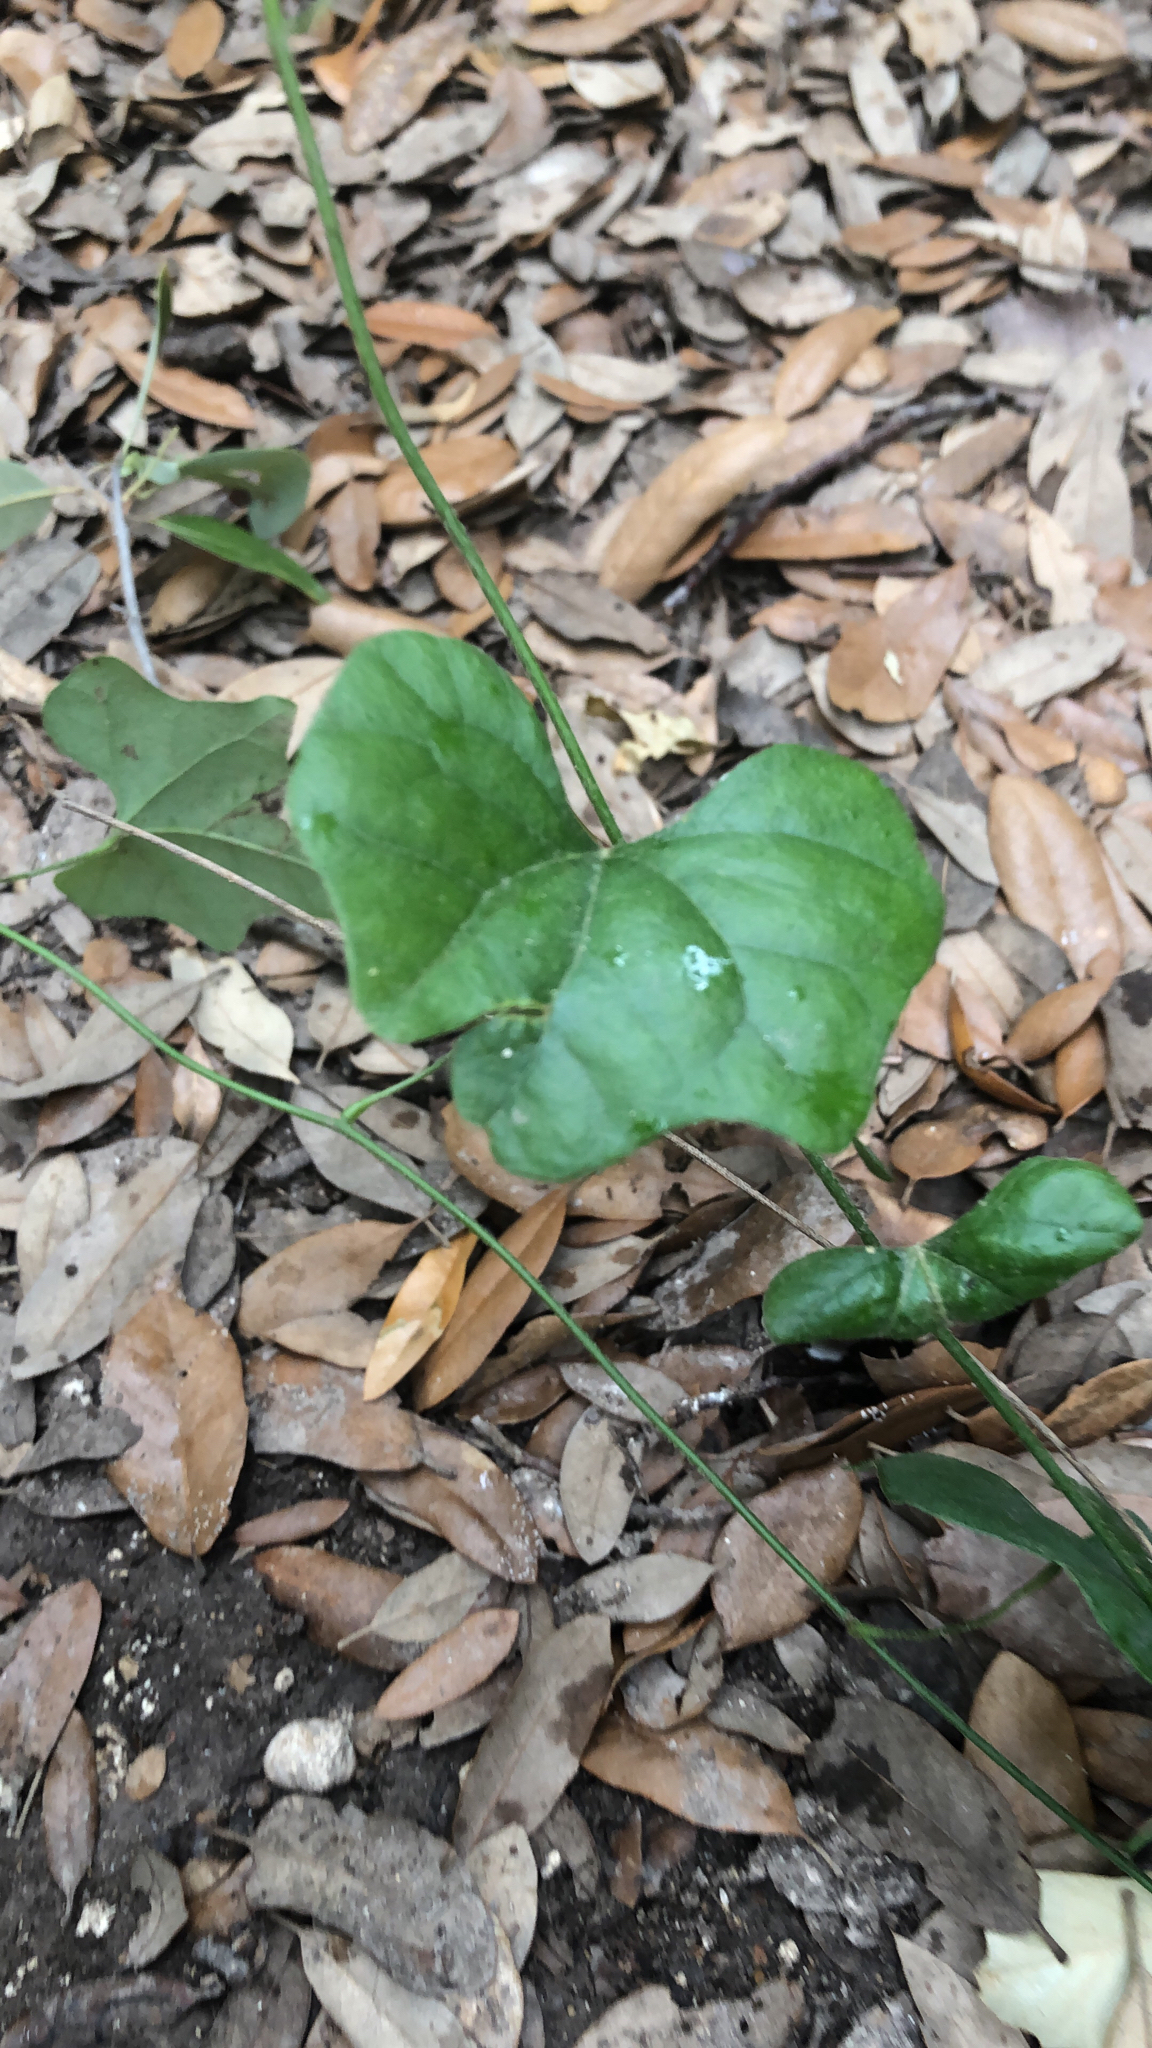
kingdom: Plantae
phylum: Tracheophyta
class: Magnoliopsida
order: Ranunculales
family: Menispermaceae
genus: Cocculus
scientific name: Cocculus carolinus
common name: Carolina moonseed
